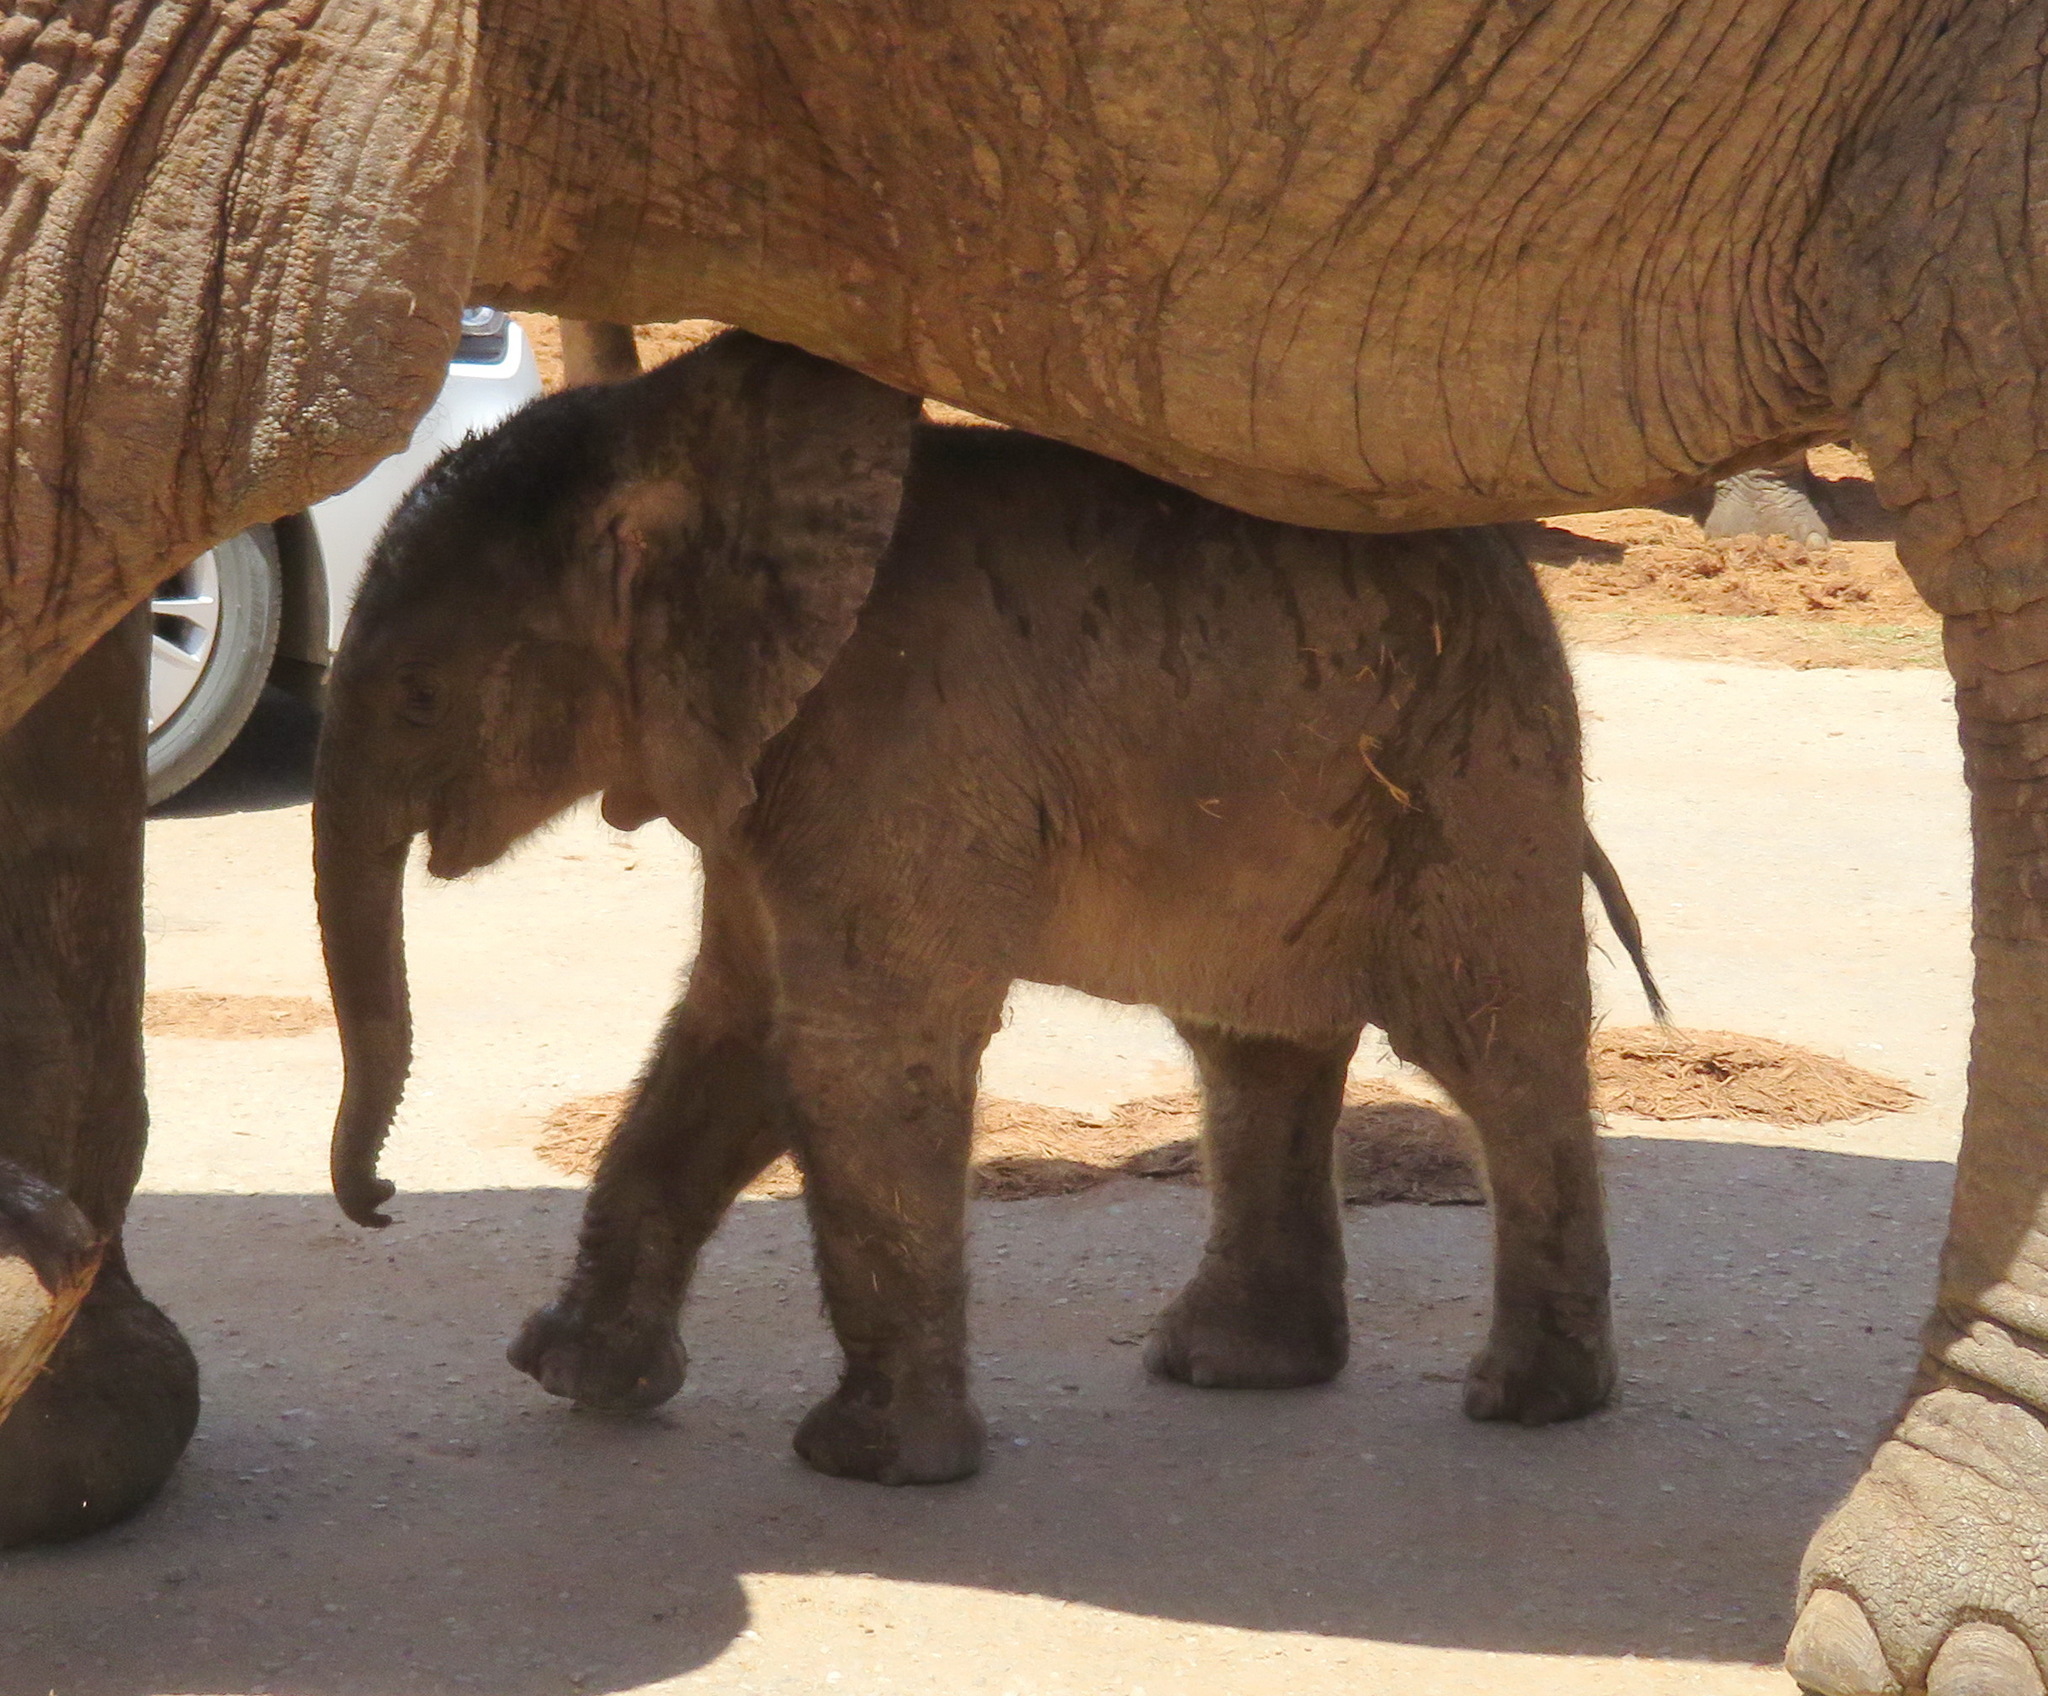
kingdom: Animalia
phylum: Chordata
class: Mammalia
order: Proboscidea
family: Elephantidae
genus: Loxodonta
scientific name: Loxodonta africana
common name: African elephant
